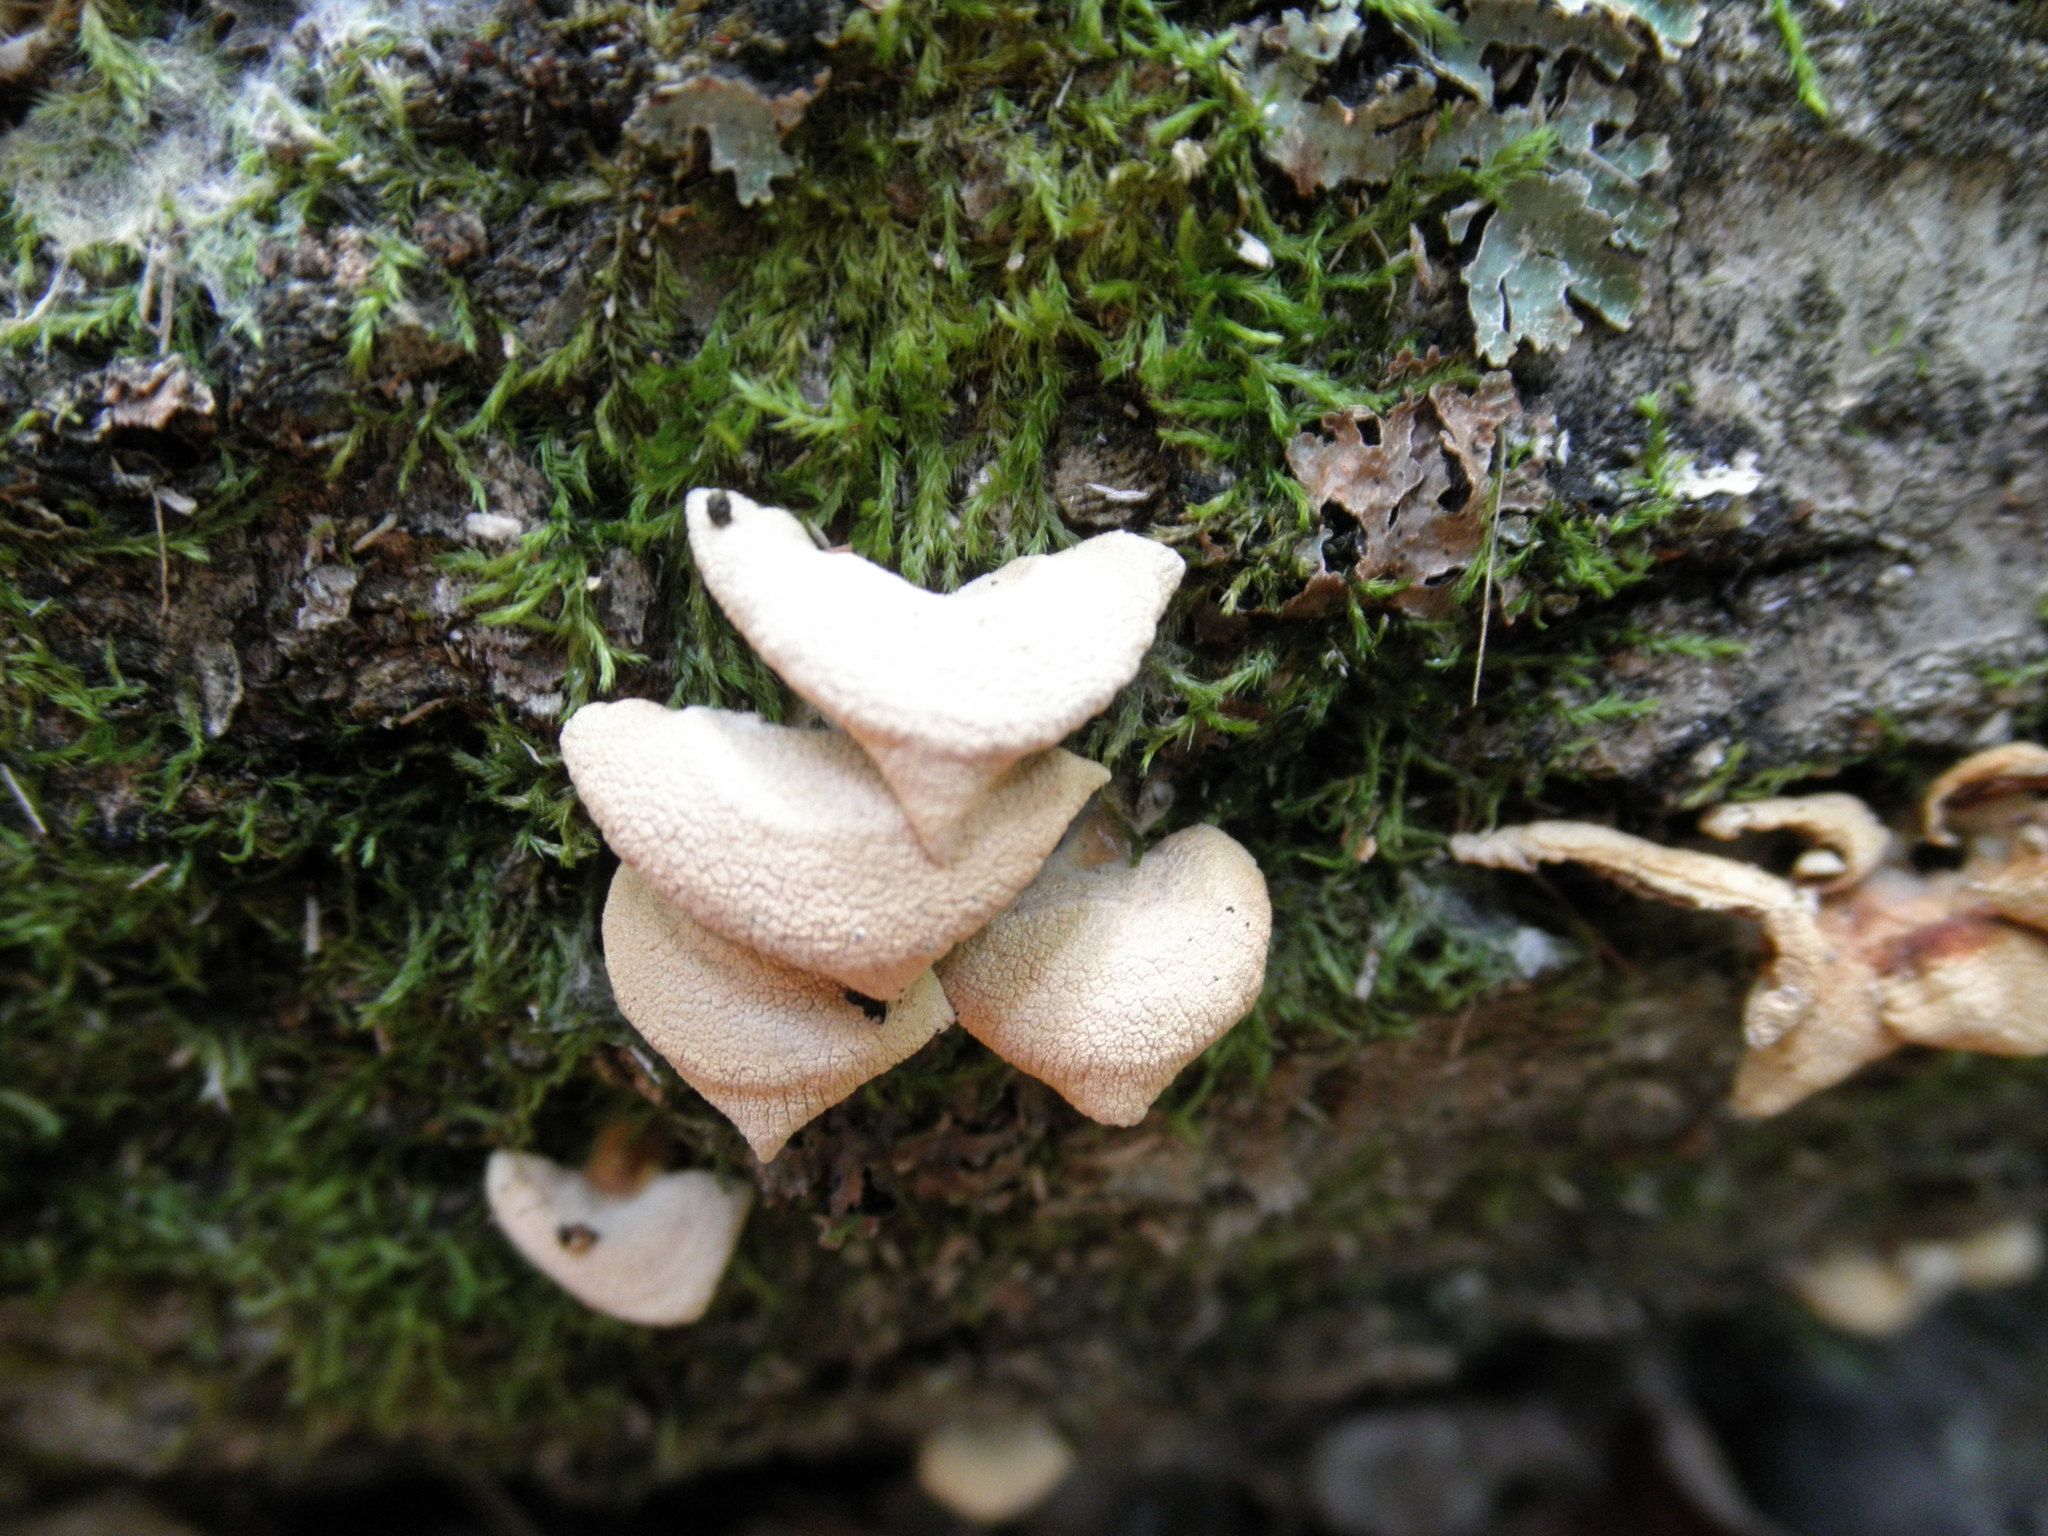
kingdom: Fungi
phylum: Basidiomycota
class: Agaricomycetes
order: Agaricales
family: Mycenaceae
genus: Panellus
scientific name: Panellus stipticus
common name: Bitter oysterling
